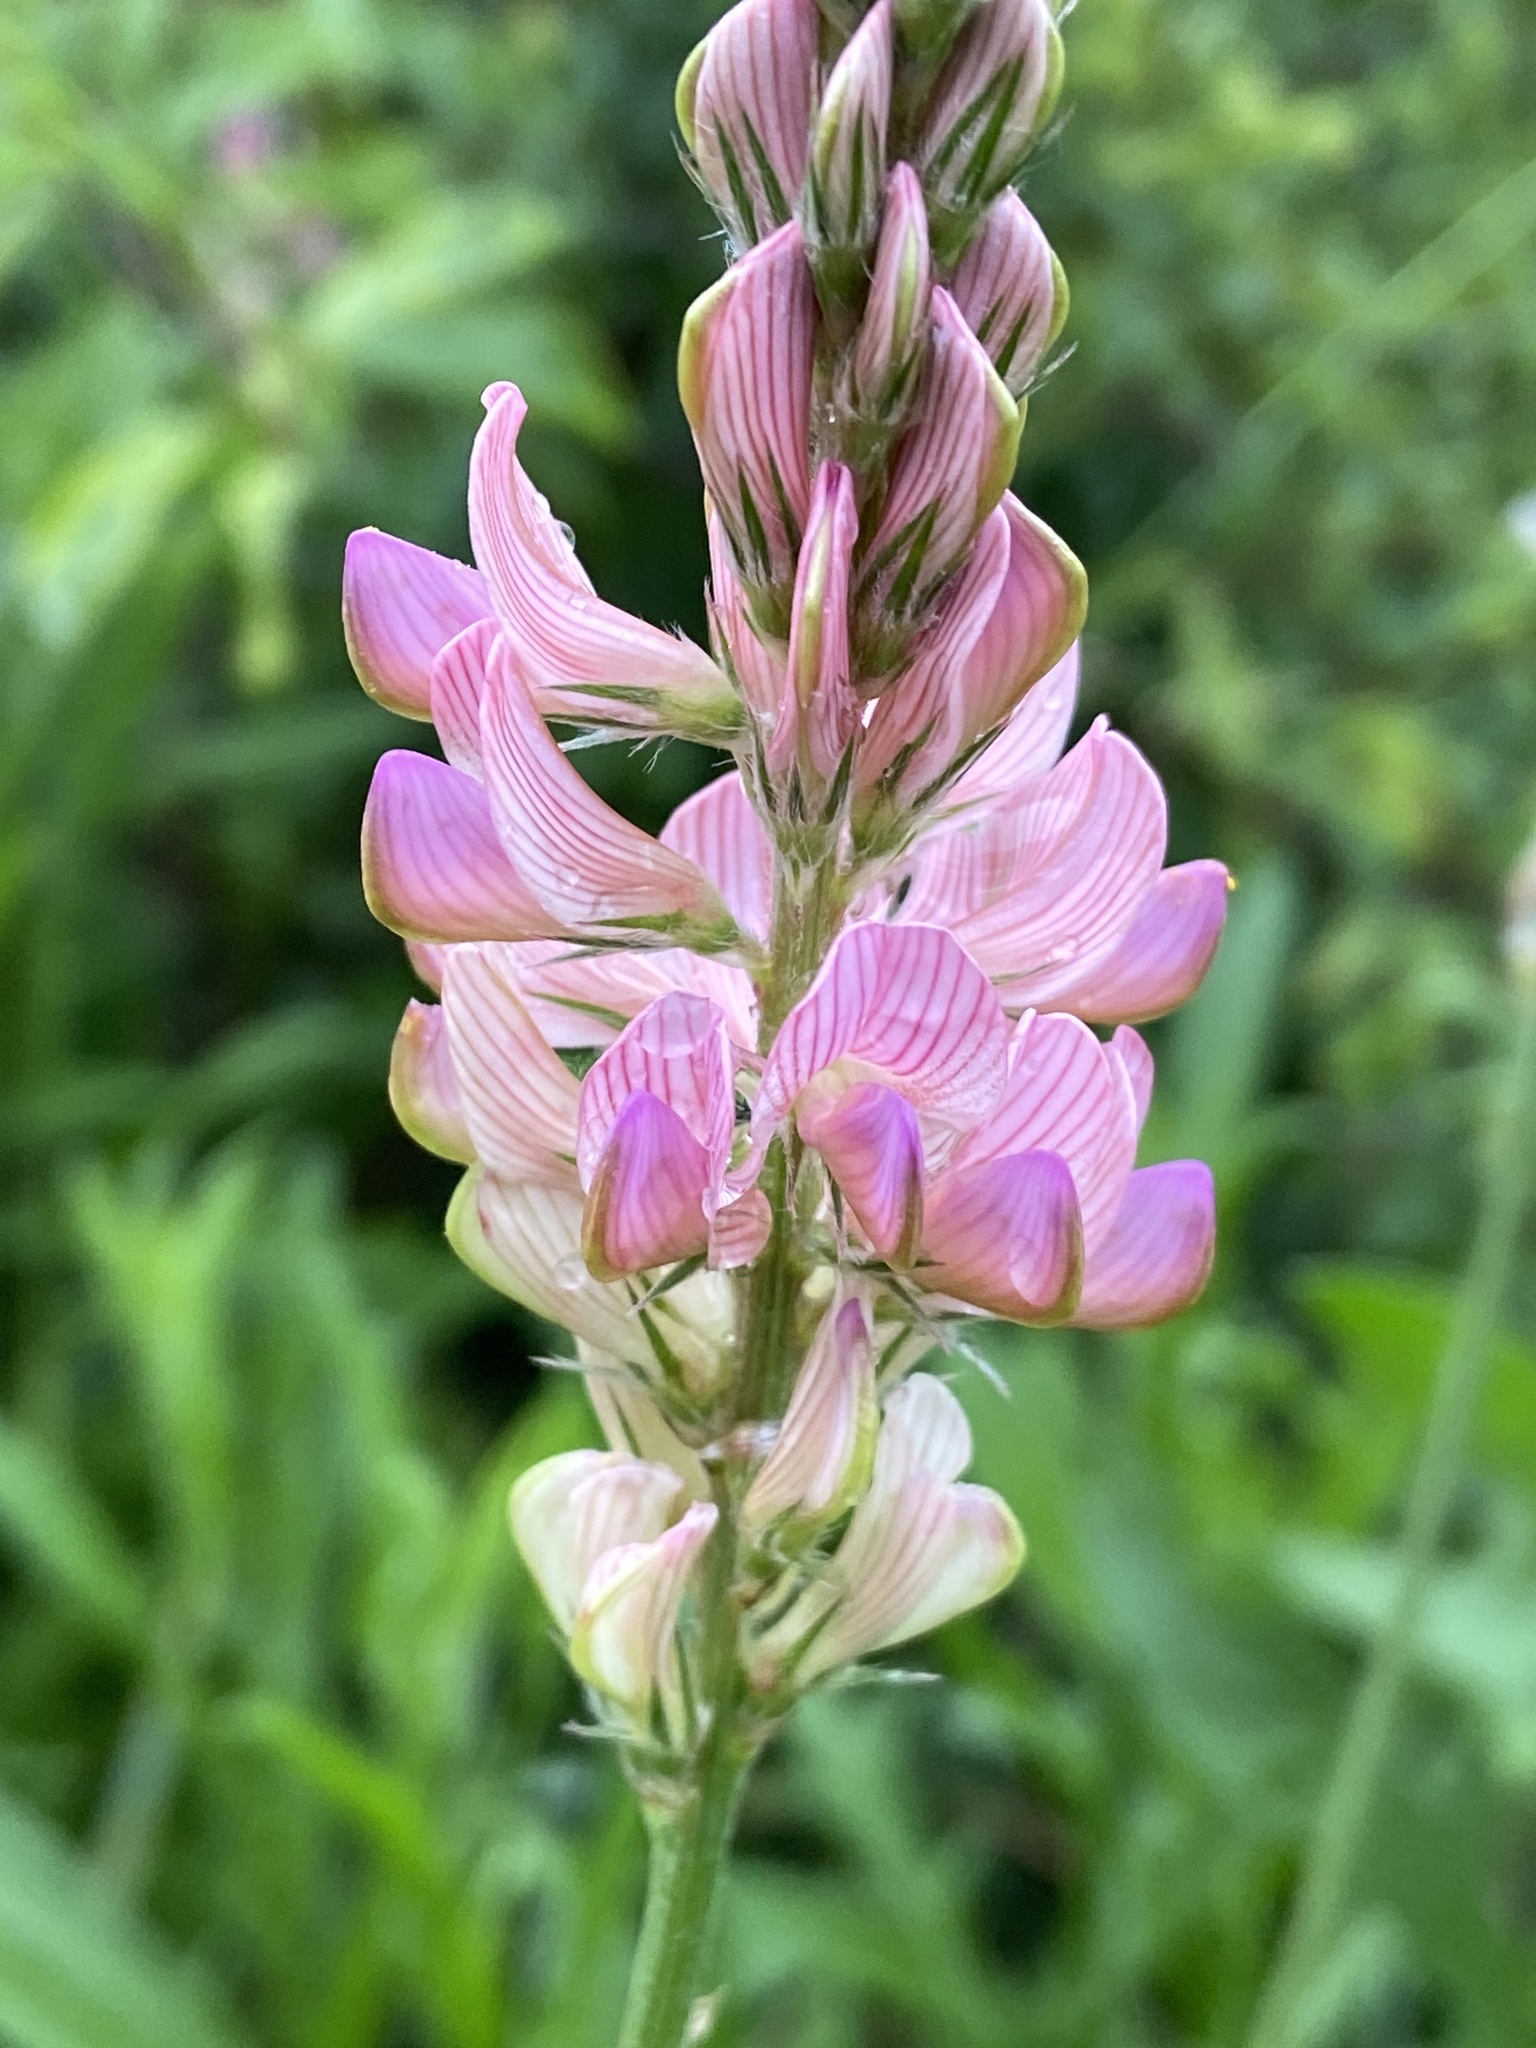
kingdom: Plantae
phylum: Tracheophyta
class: Magnoliopsida
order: Fabales
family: Fabaceae
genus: Onobrychis
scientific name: Onobrychis viciifolia
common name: Sainfoin
